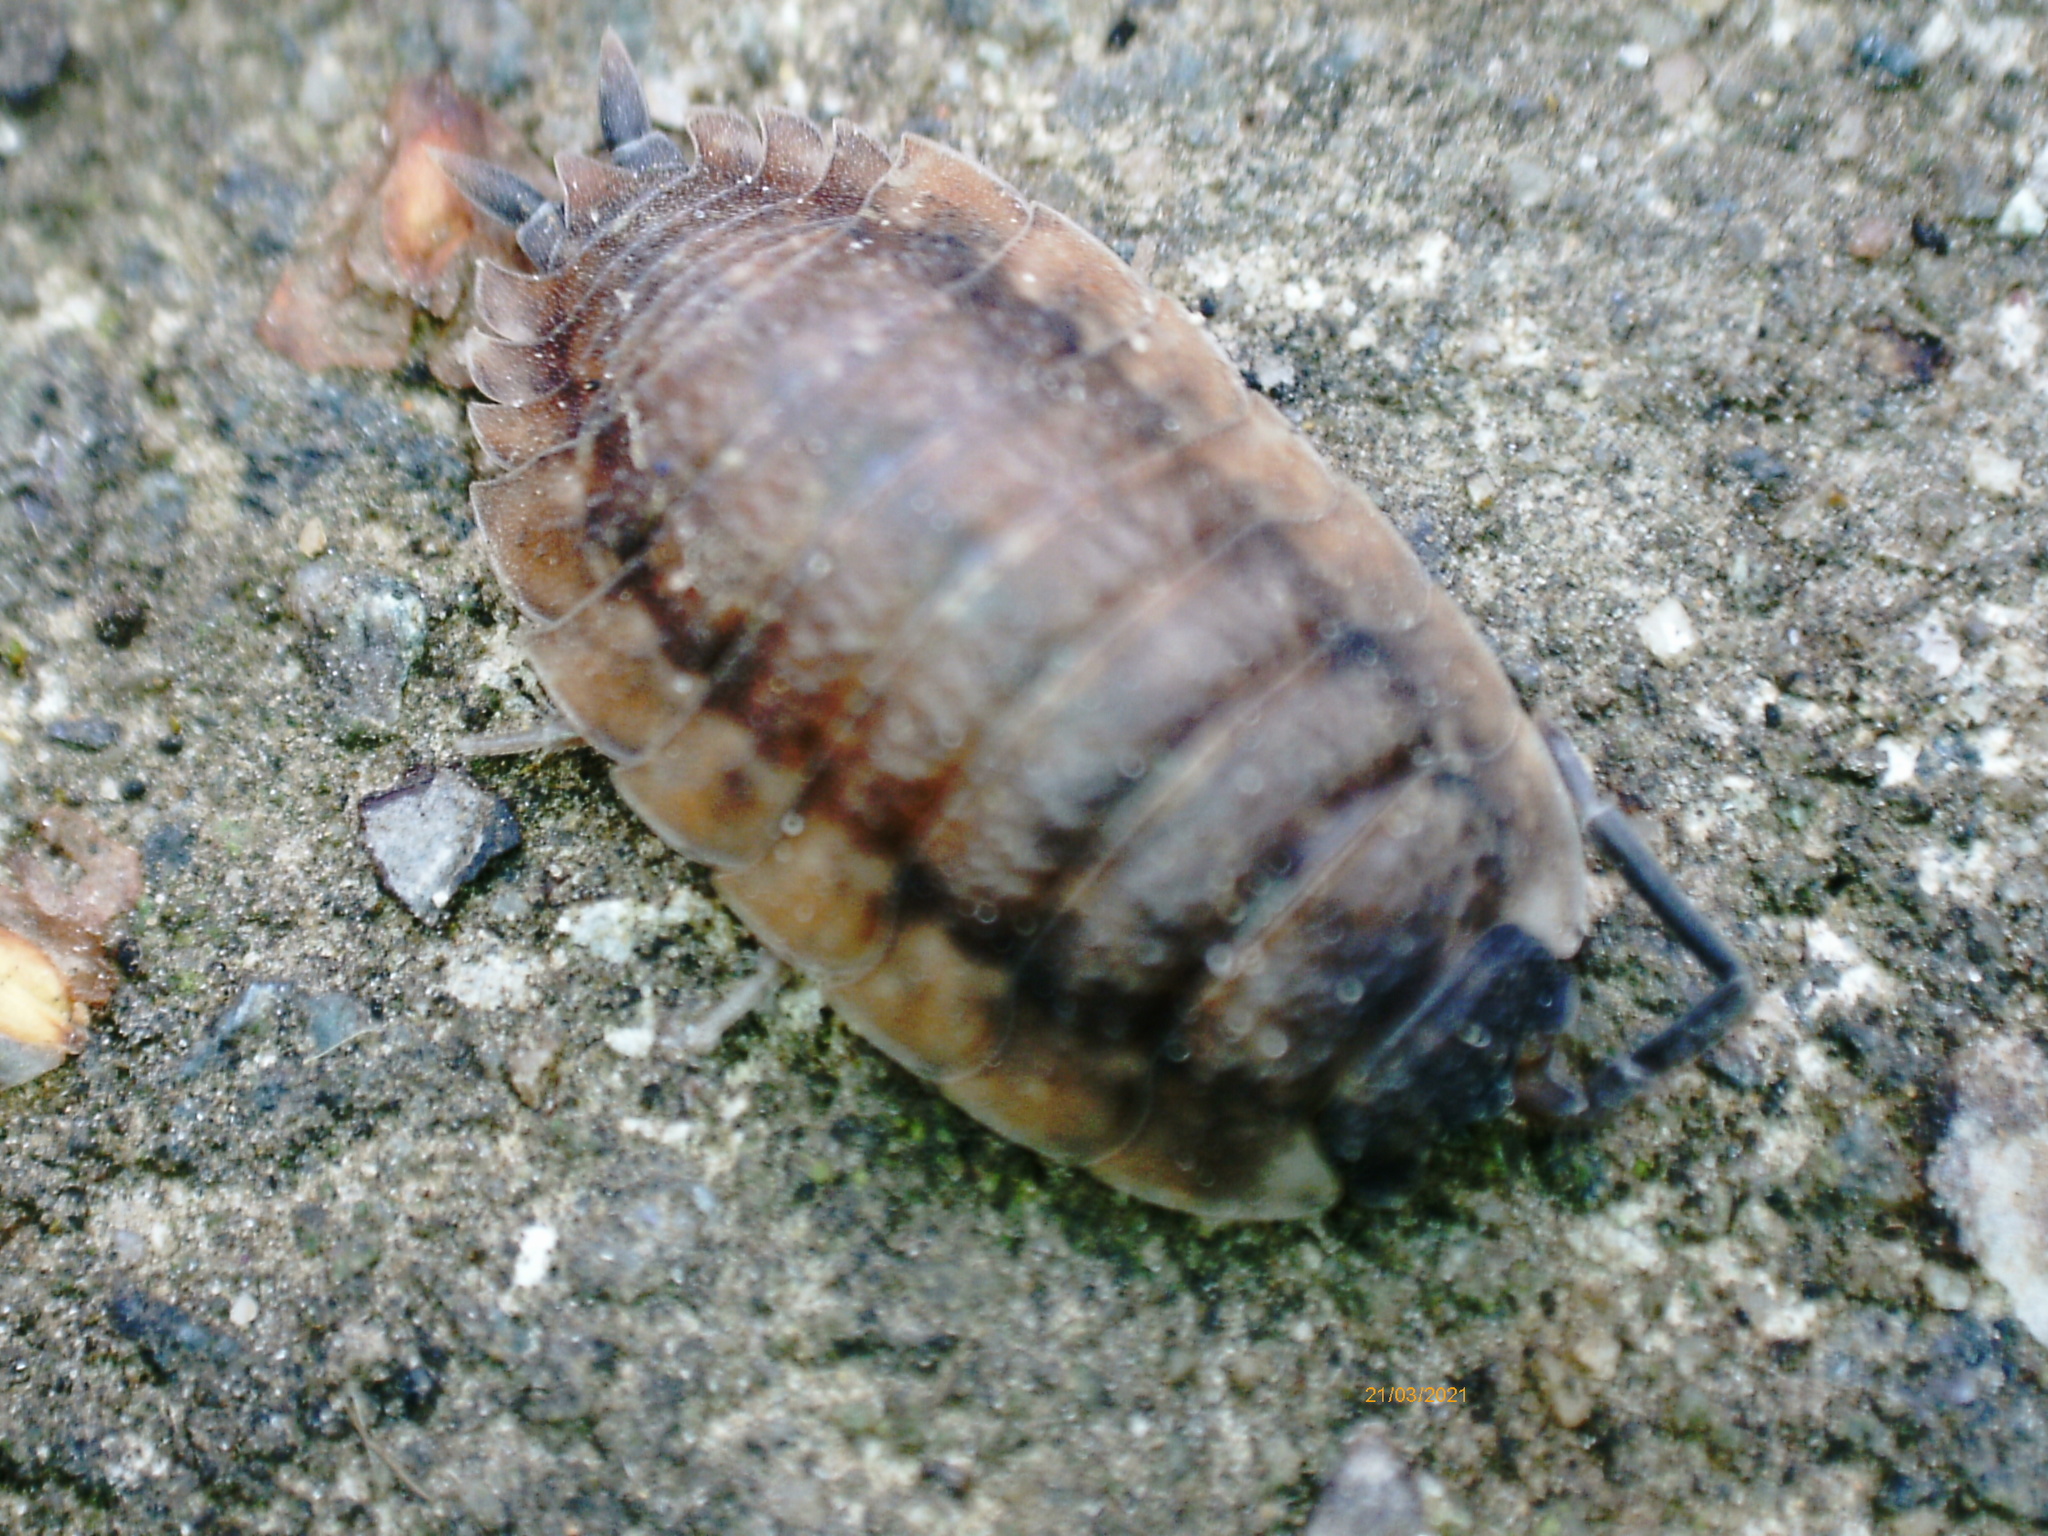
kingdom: Animalia
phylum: Arthropoda
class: Malacostraca
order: Isopoda
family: Porcellionidae
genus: Porcellio
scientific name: Porcellio scaber
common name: Common rough woodlouse
